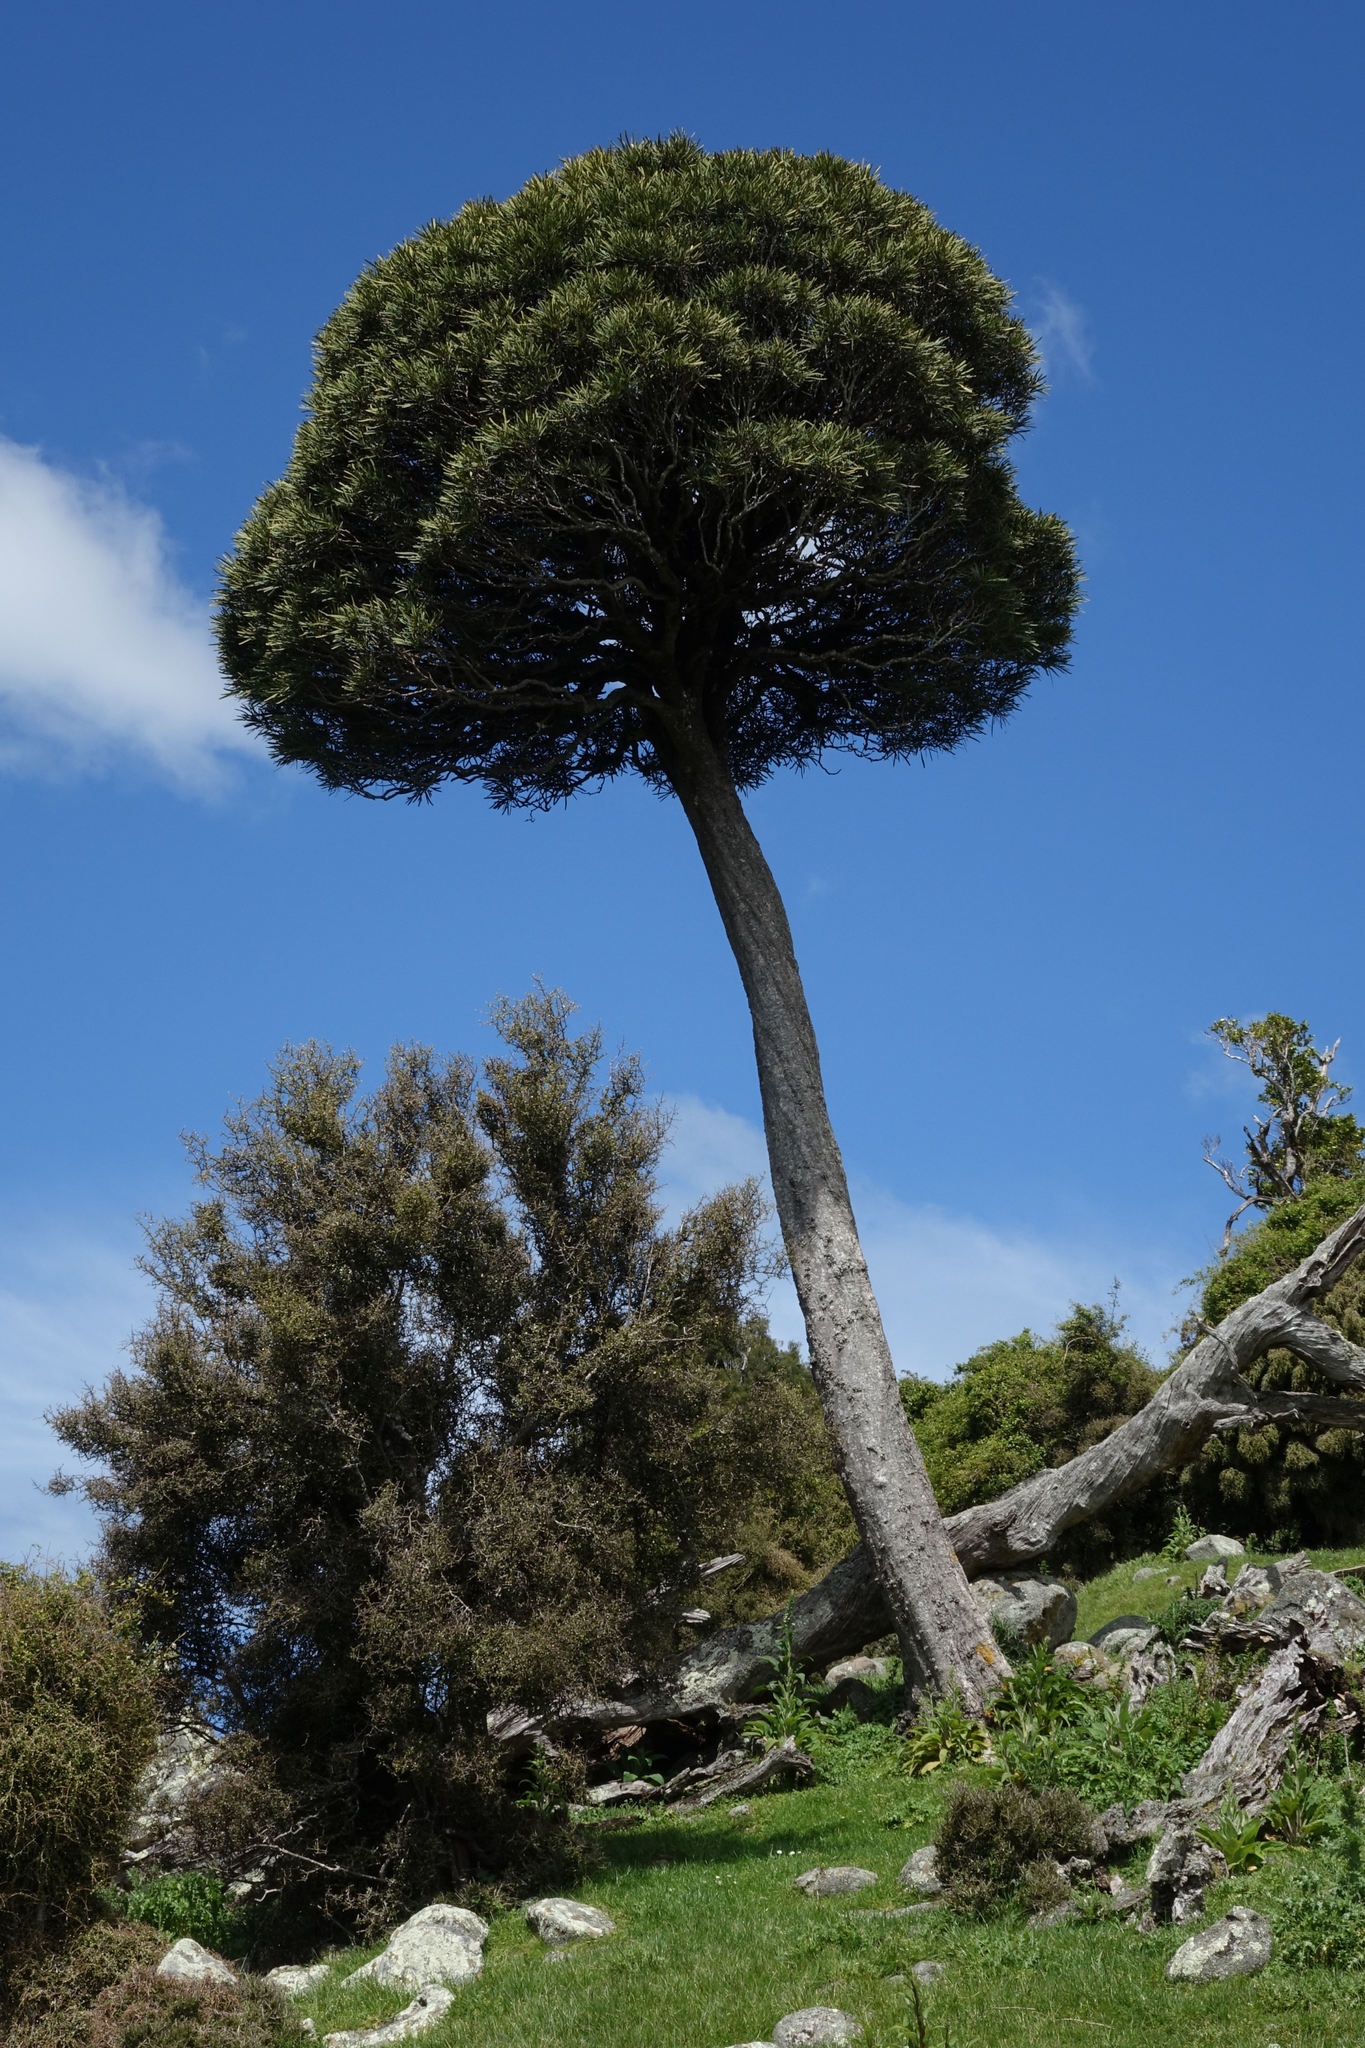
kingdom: Plantae
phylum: Tracheophyta
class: Magnoliopsida
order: Apiales
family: Araliaceae
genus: Pseudopanax
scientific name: Pseudopanax ferox
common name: Fierce lancewood
